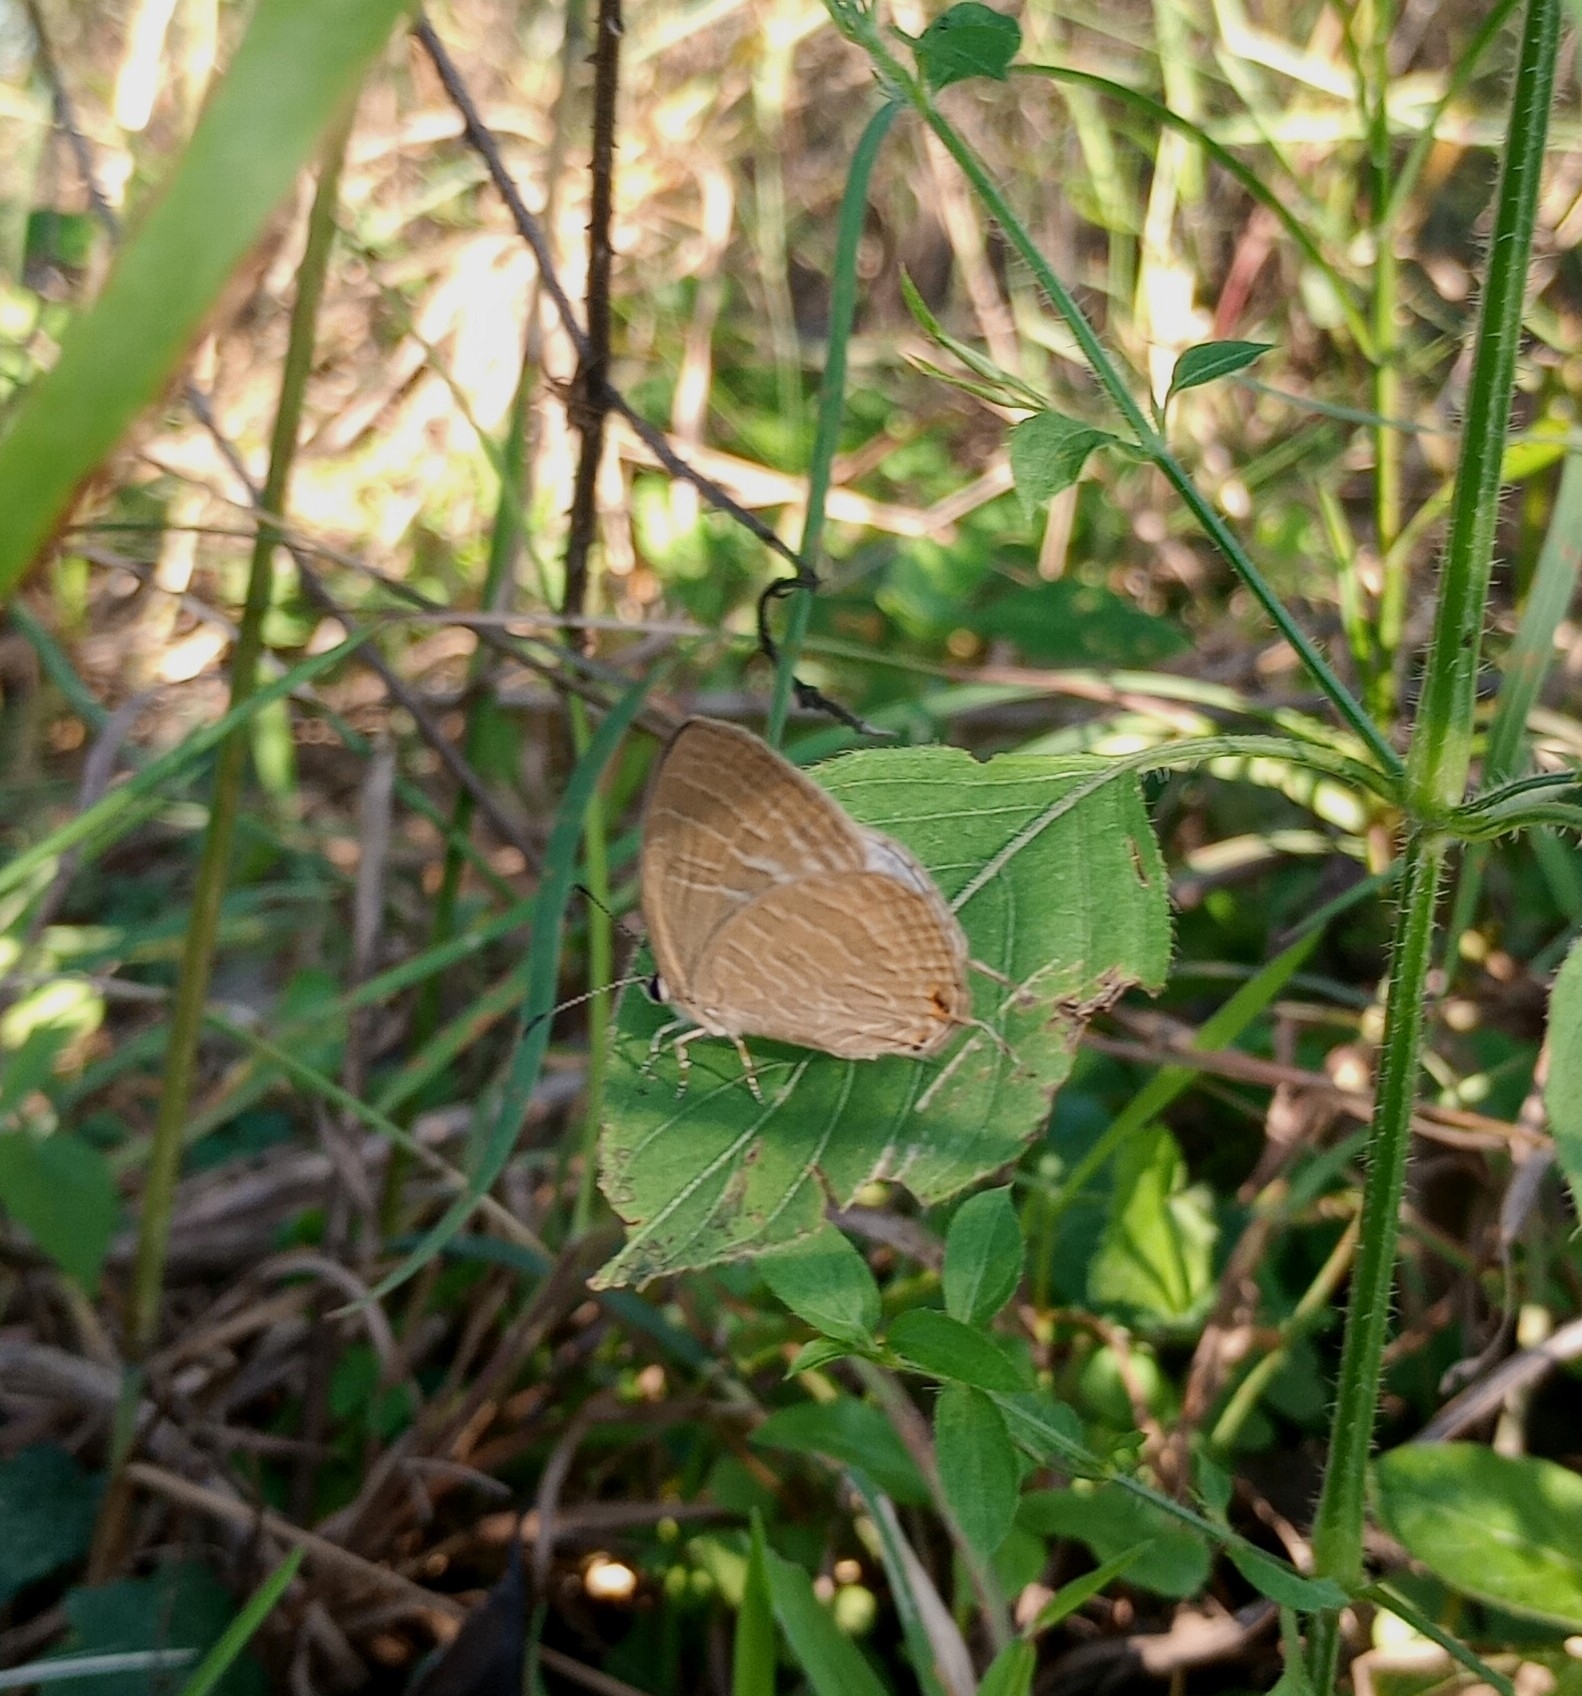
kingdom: Animalia
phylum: Arthropoda
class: Insecta
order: Lepidoptera
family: Lycaenidae
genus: Jamides
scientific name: Jamides celeno
